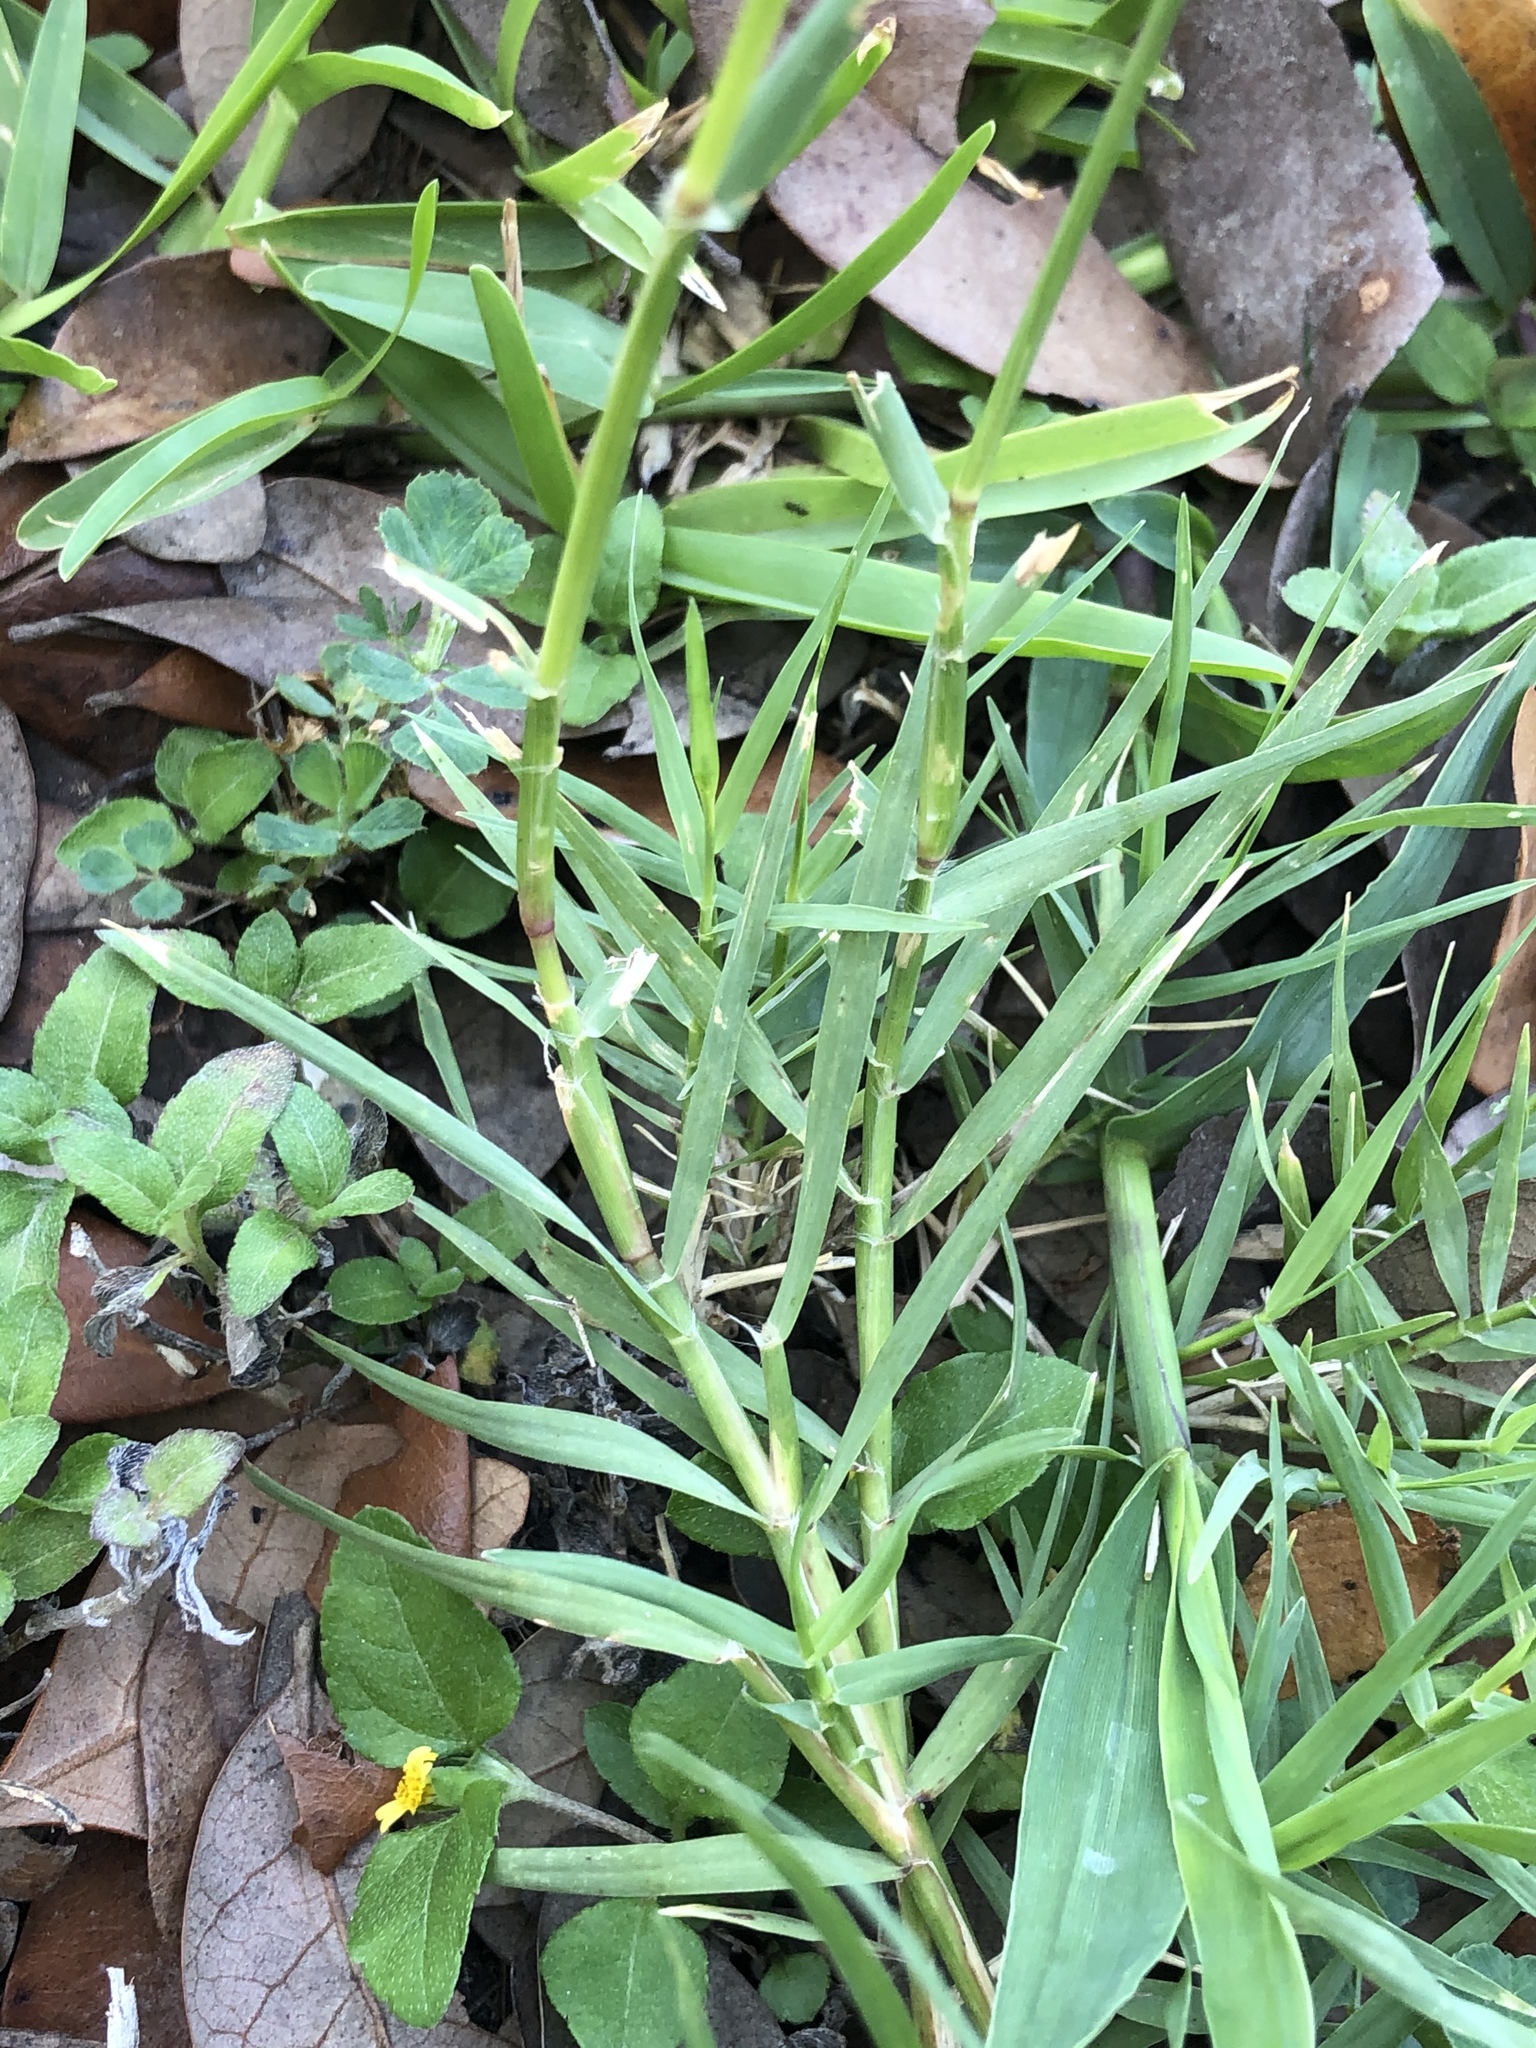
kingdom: Plantae
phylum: Tracheophyta
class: Liliopsida
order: Poales
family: Poaceae
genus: Cynodon
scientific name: Cynodon dactylon
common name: Bermuda grass
